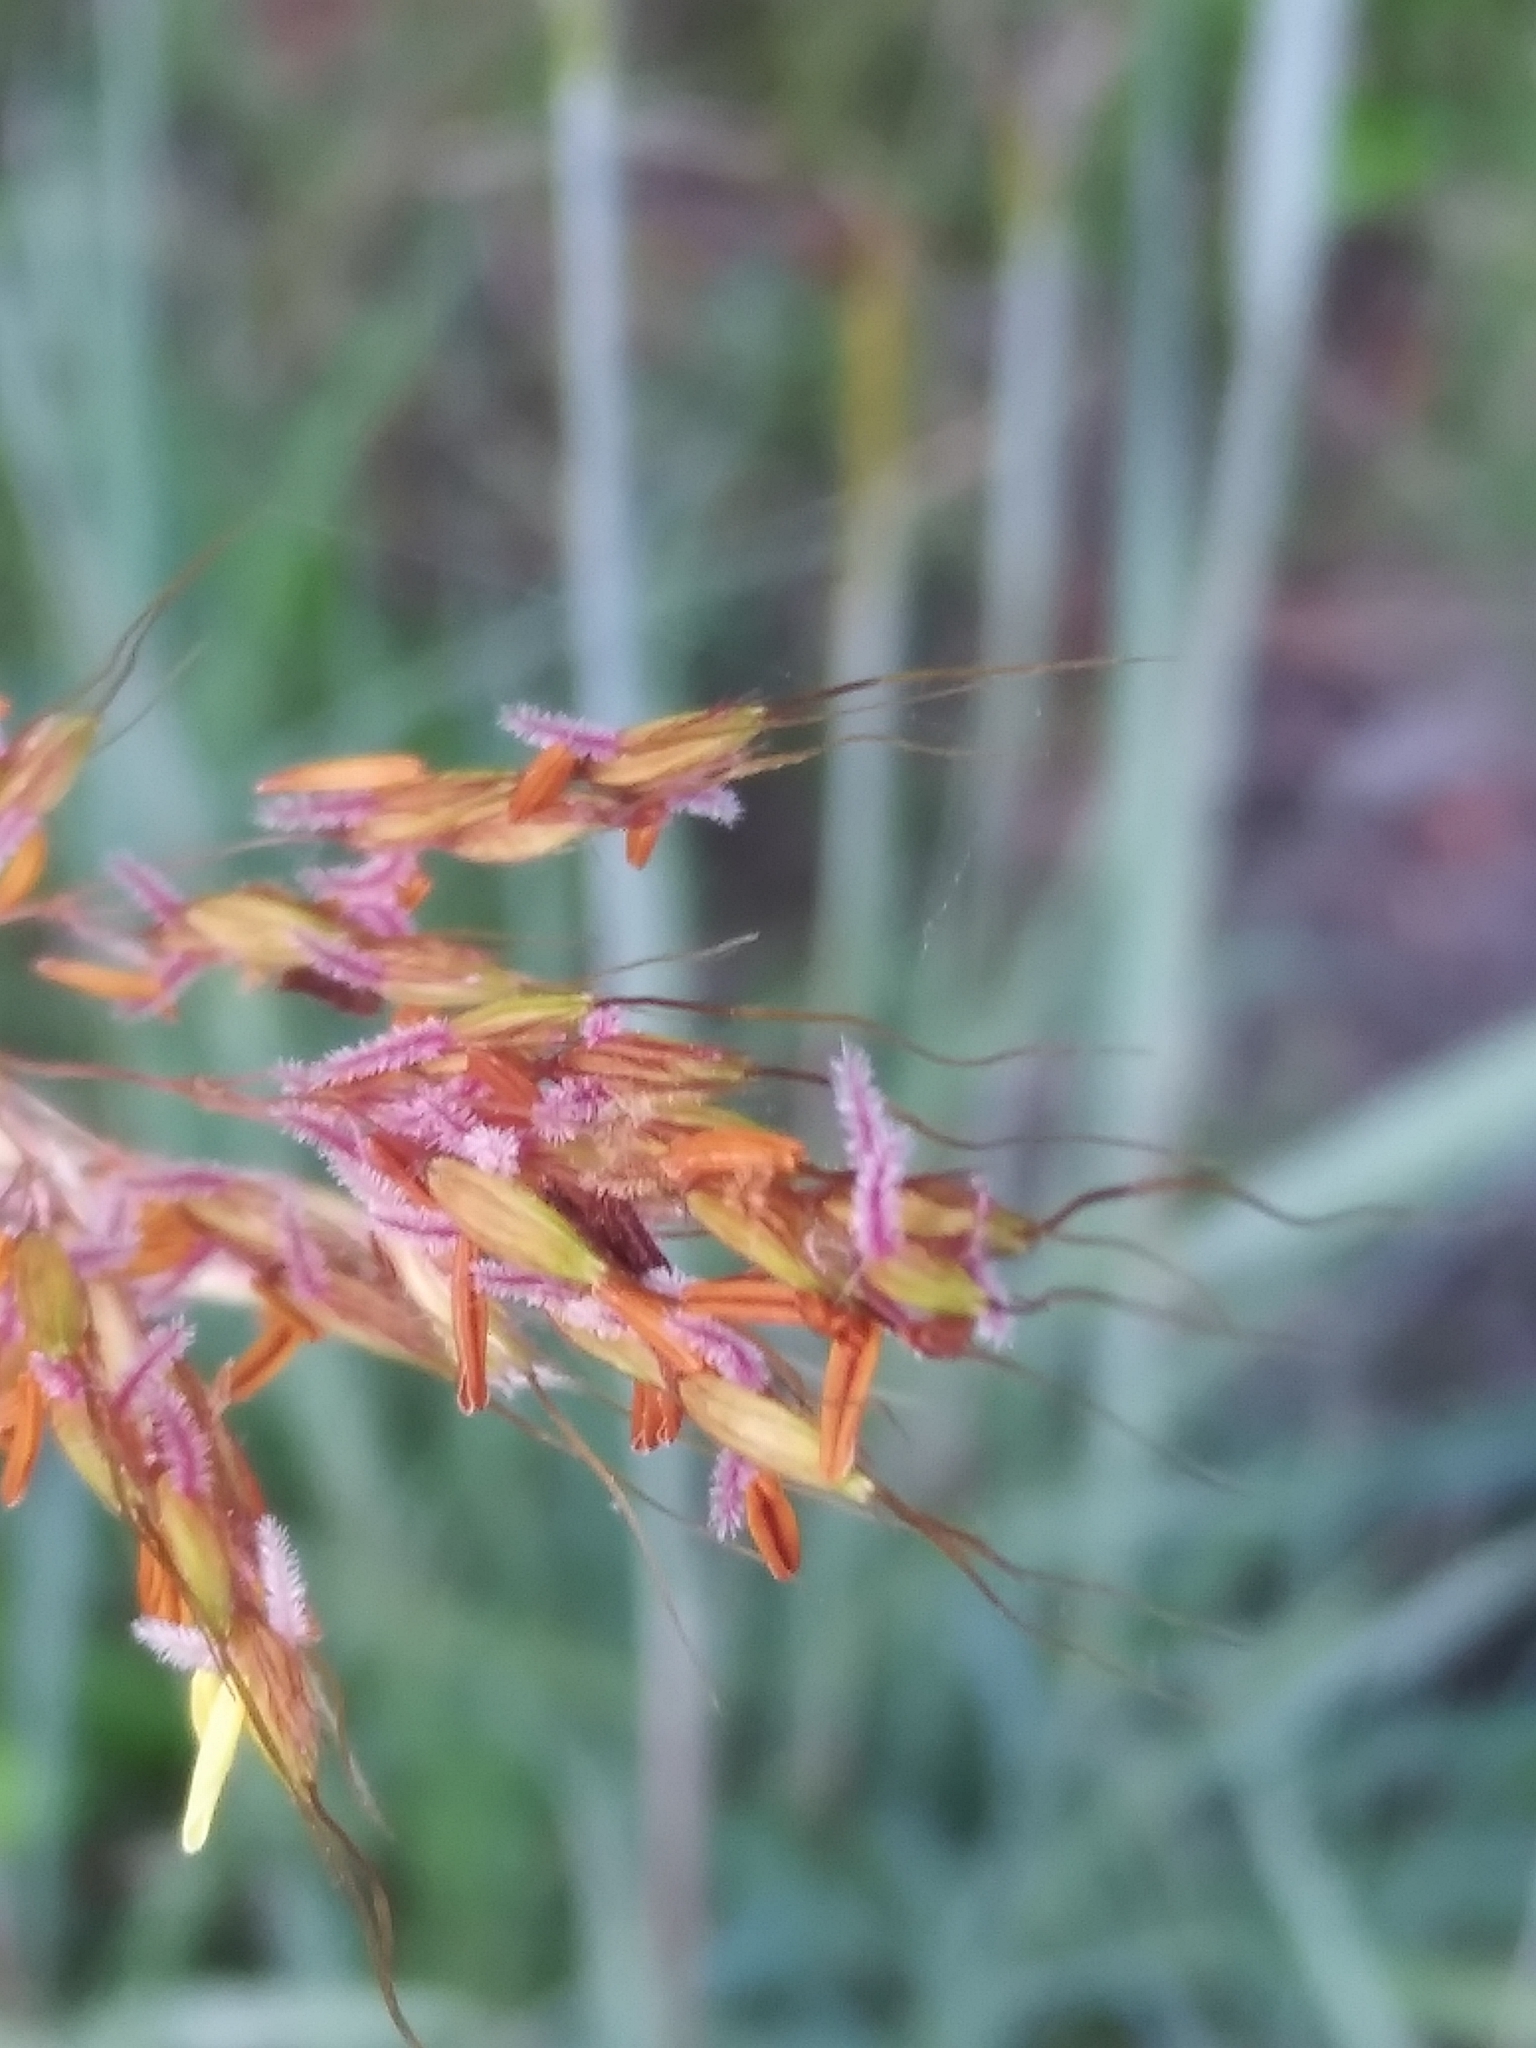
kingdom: Plantae
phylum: Tracheophyta
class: Liliopsida
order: Poales
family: Poaceae
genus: Sorghastrum
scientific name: Sorghastrum nutans
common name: Indian grass
